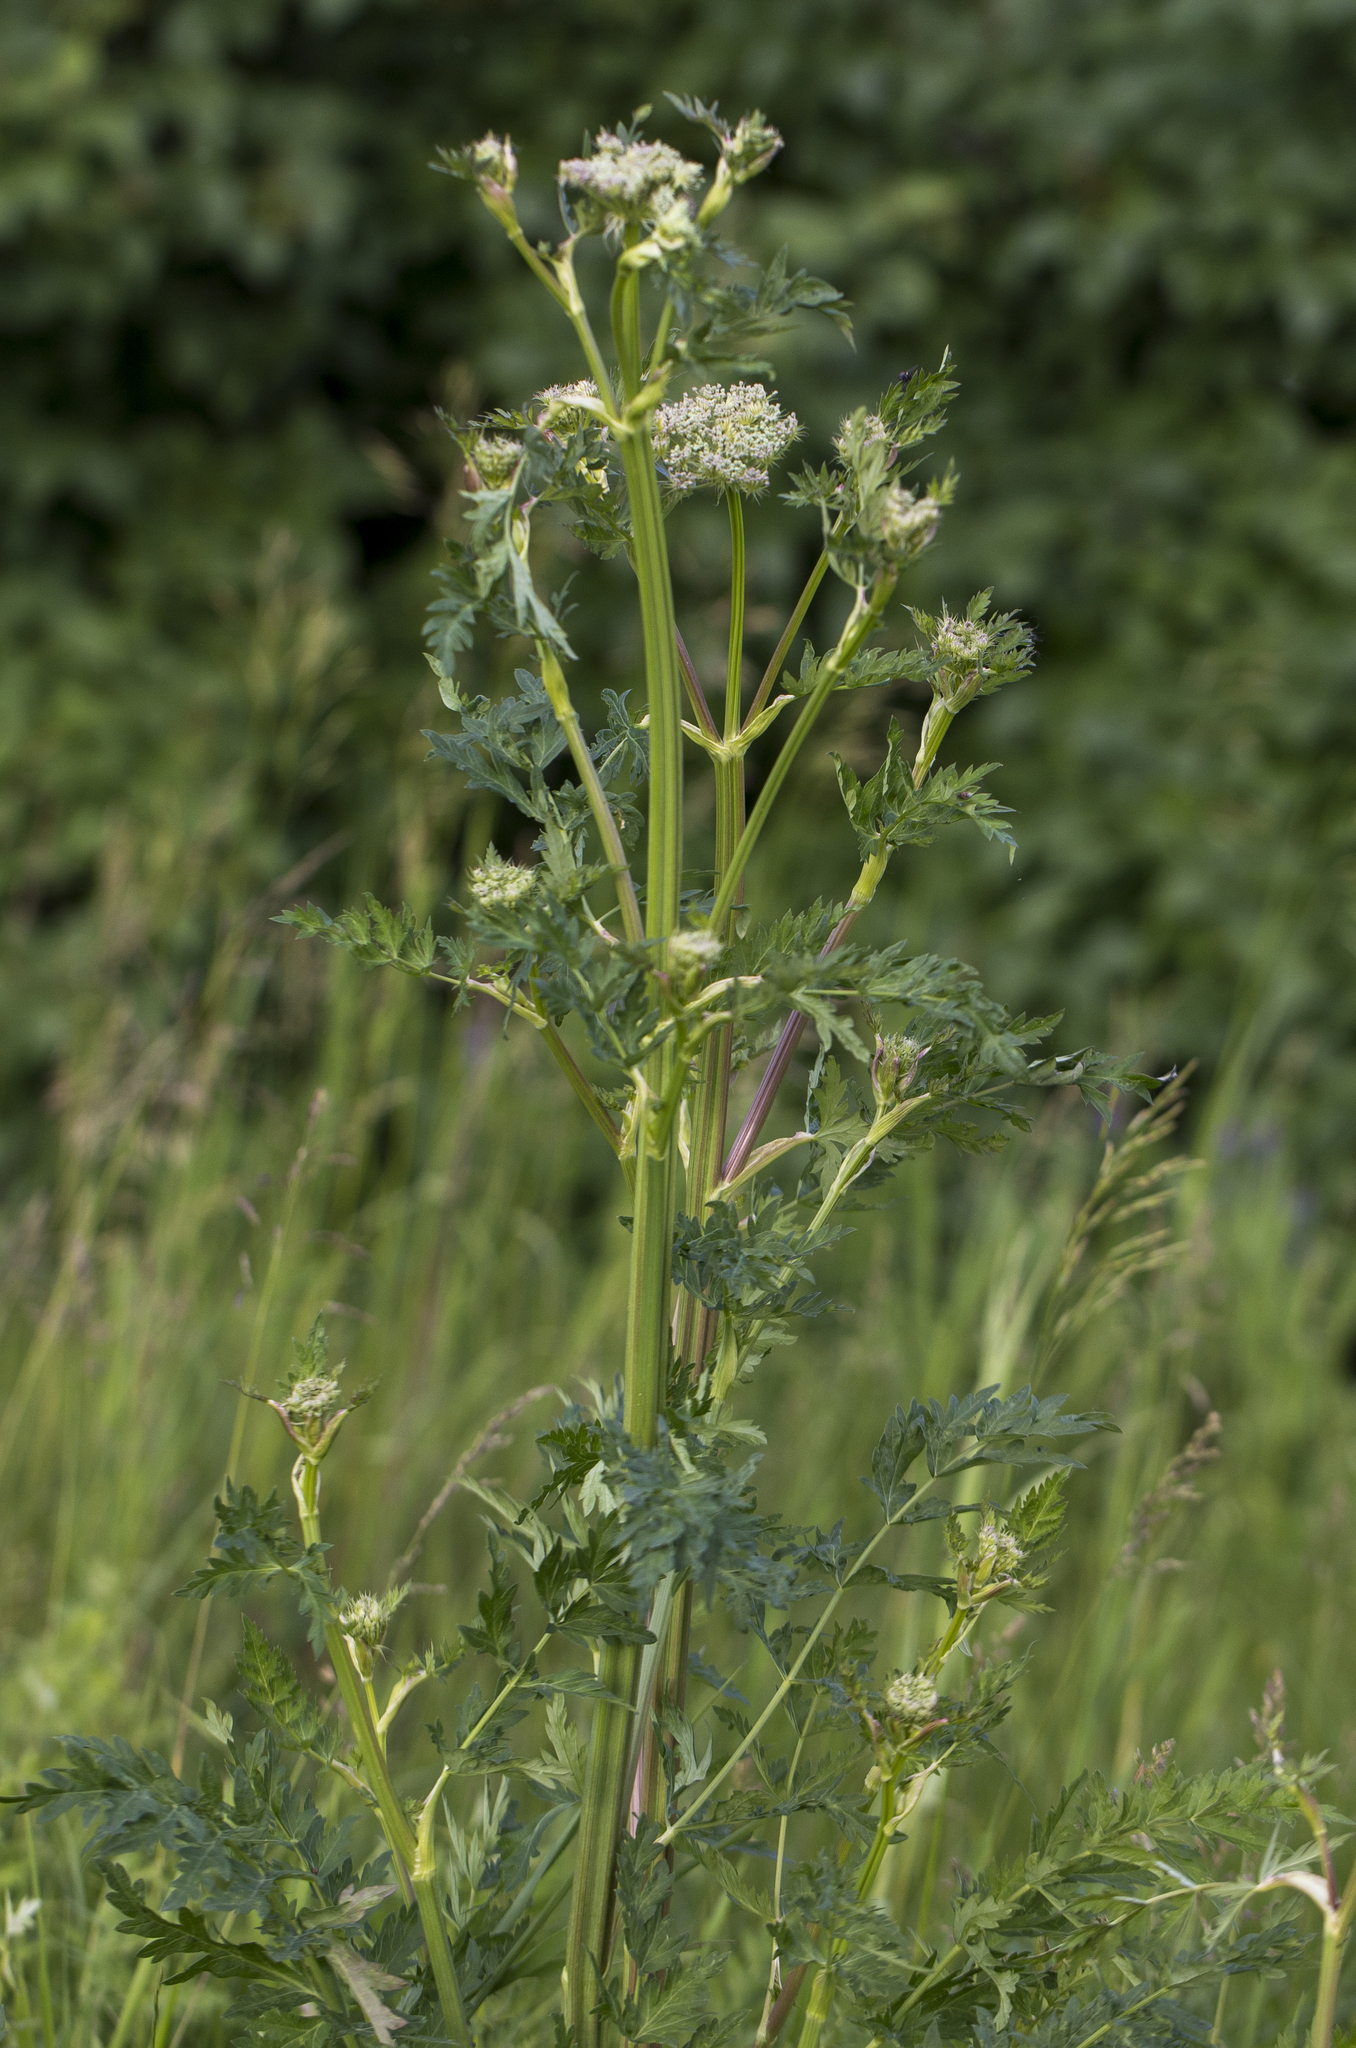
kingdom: Plantae
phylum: Tracheophyta
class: Magnoliopsida
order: Apiales
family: Apiaceae
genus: Seseli
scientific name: Seseli libanotis
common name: Mooncarrot
